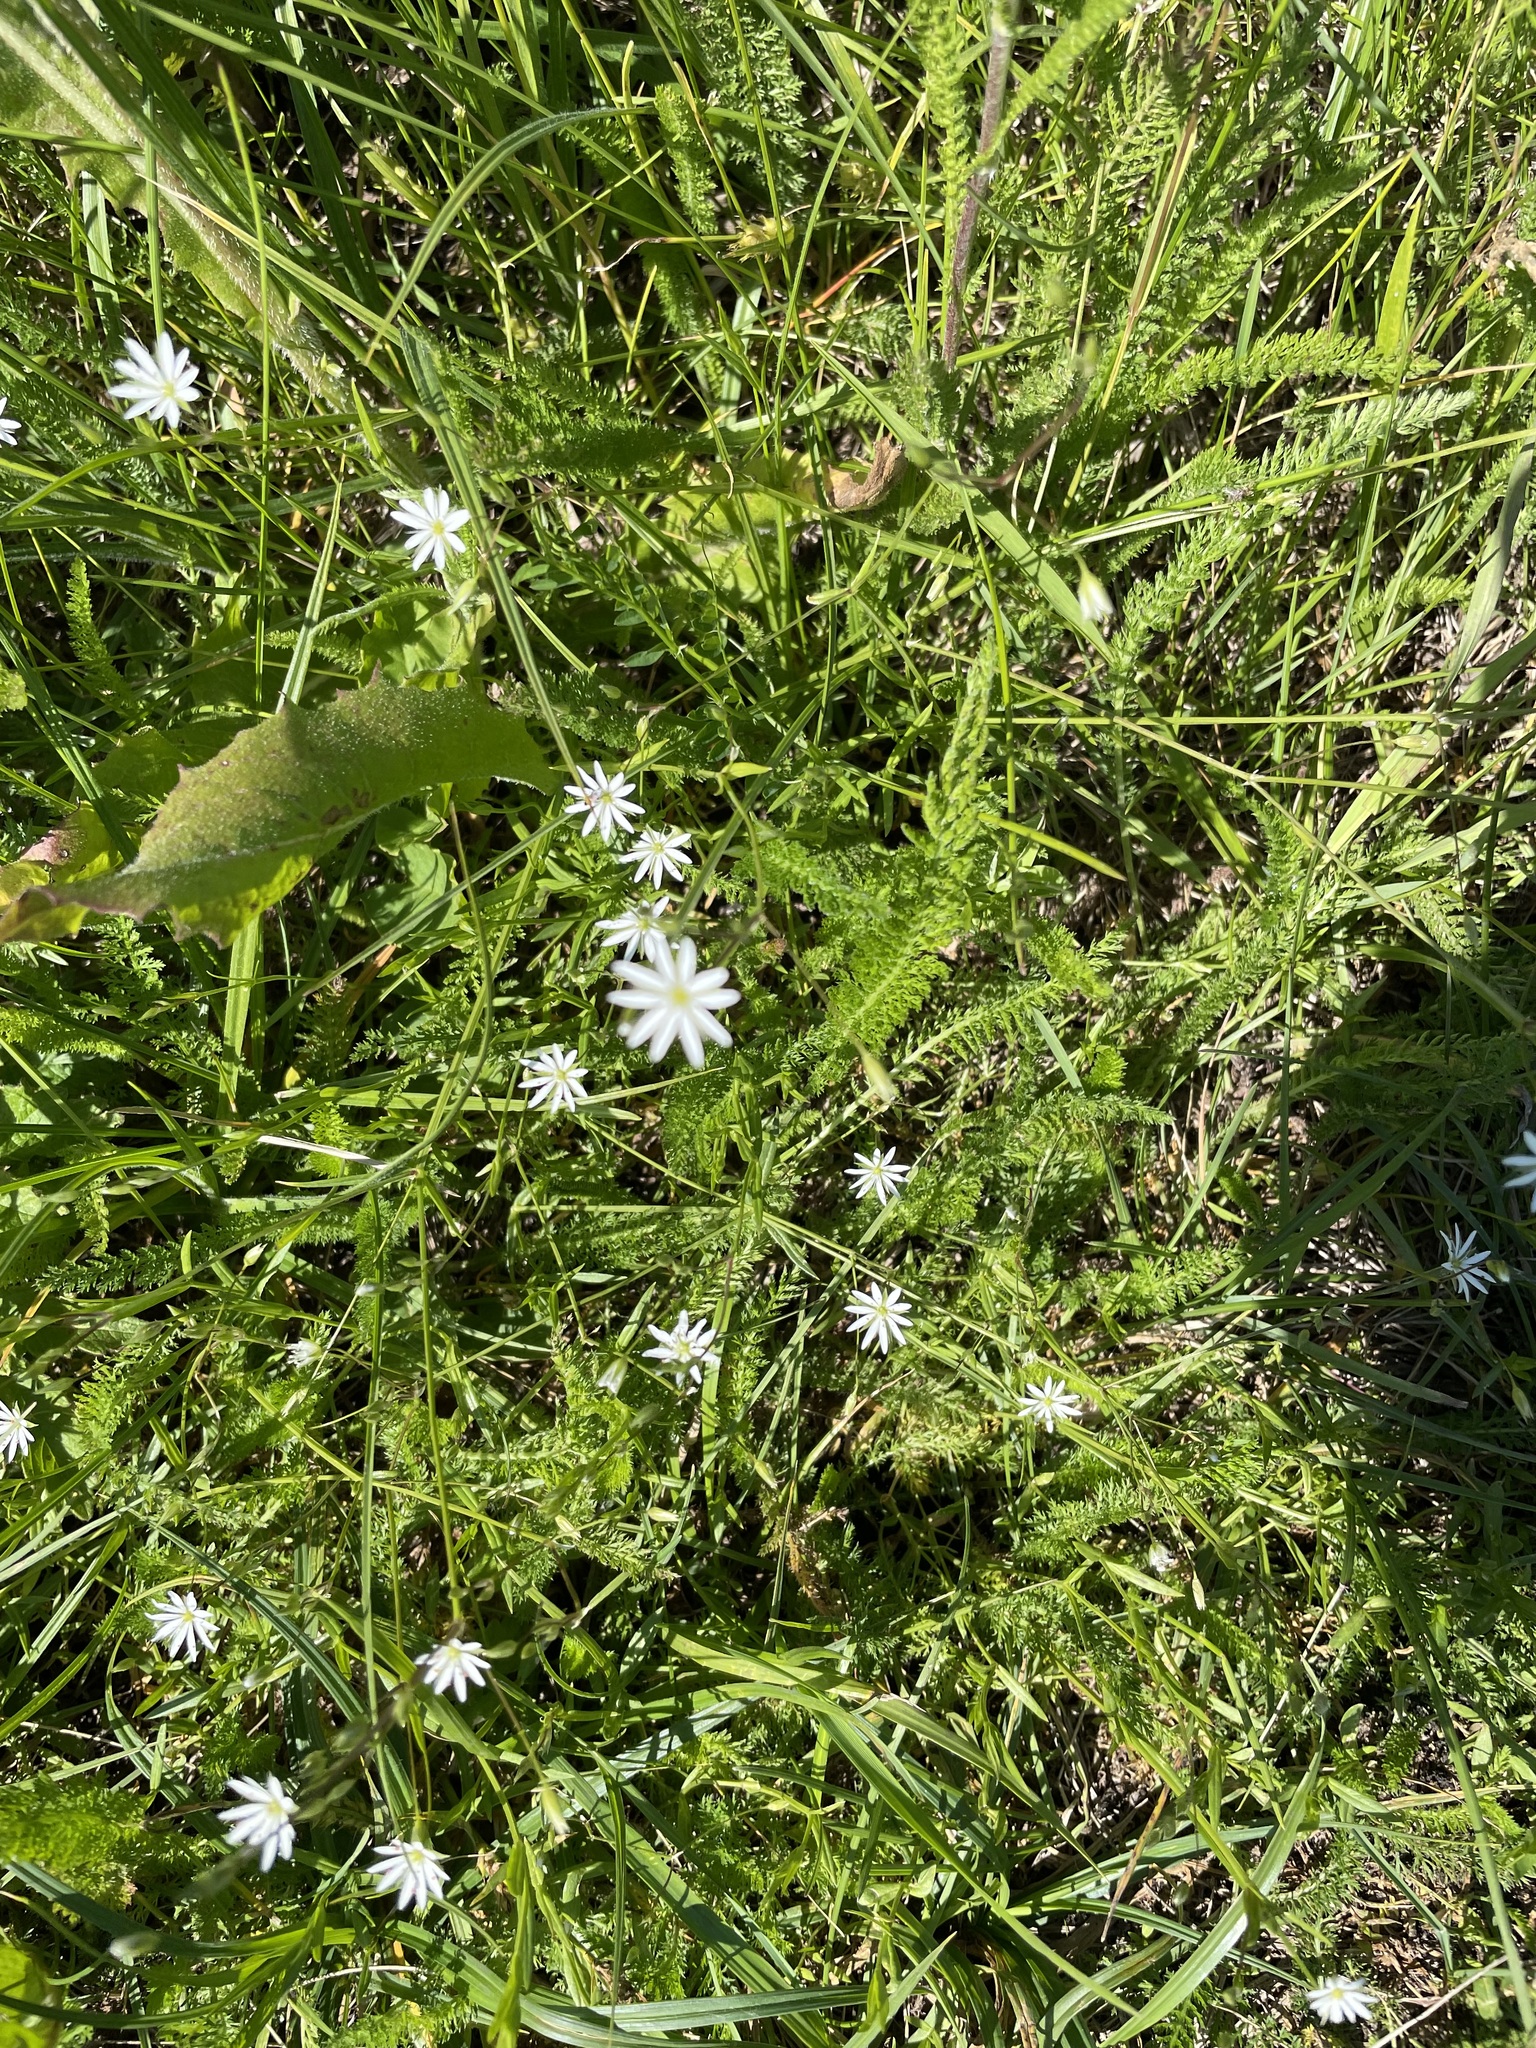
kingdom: Plantae
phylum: Tracheophyta
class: Magnoliopsida
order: Caryophyllales
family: Caryophyllaceae
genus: Stellaria
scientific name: Stellaria graminea
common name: Grass-like starwort
